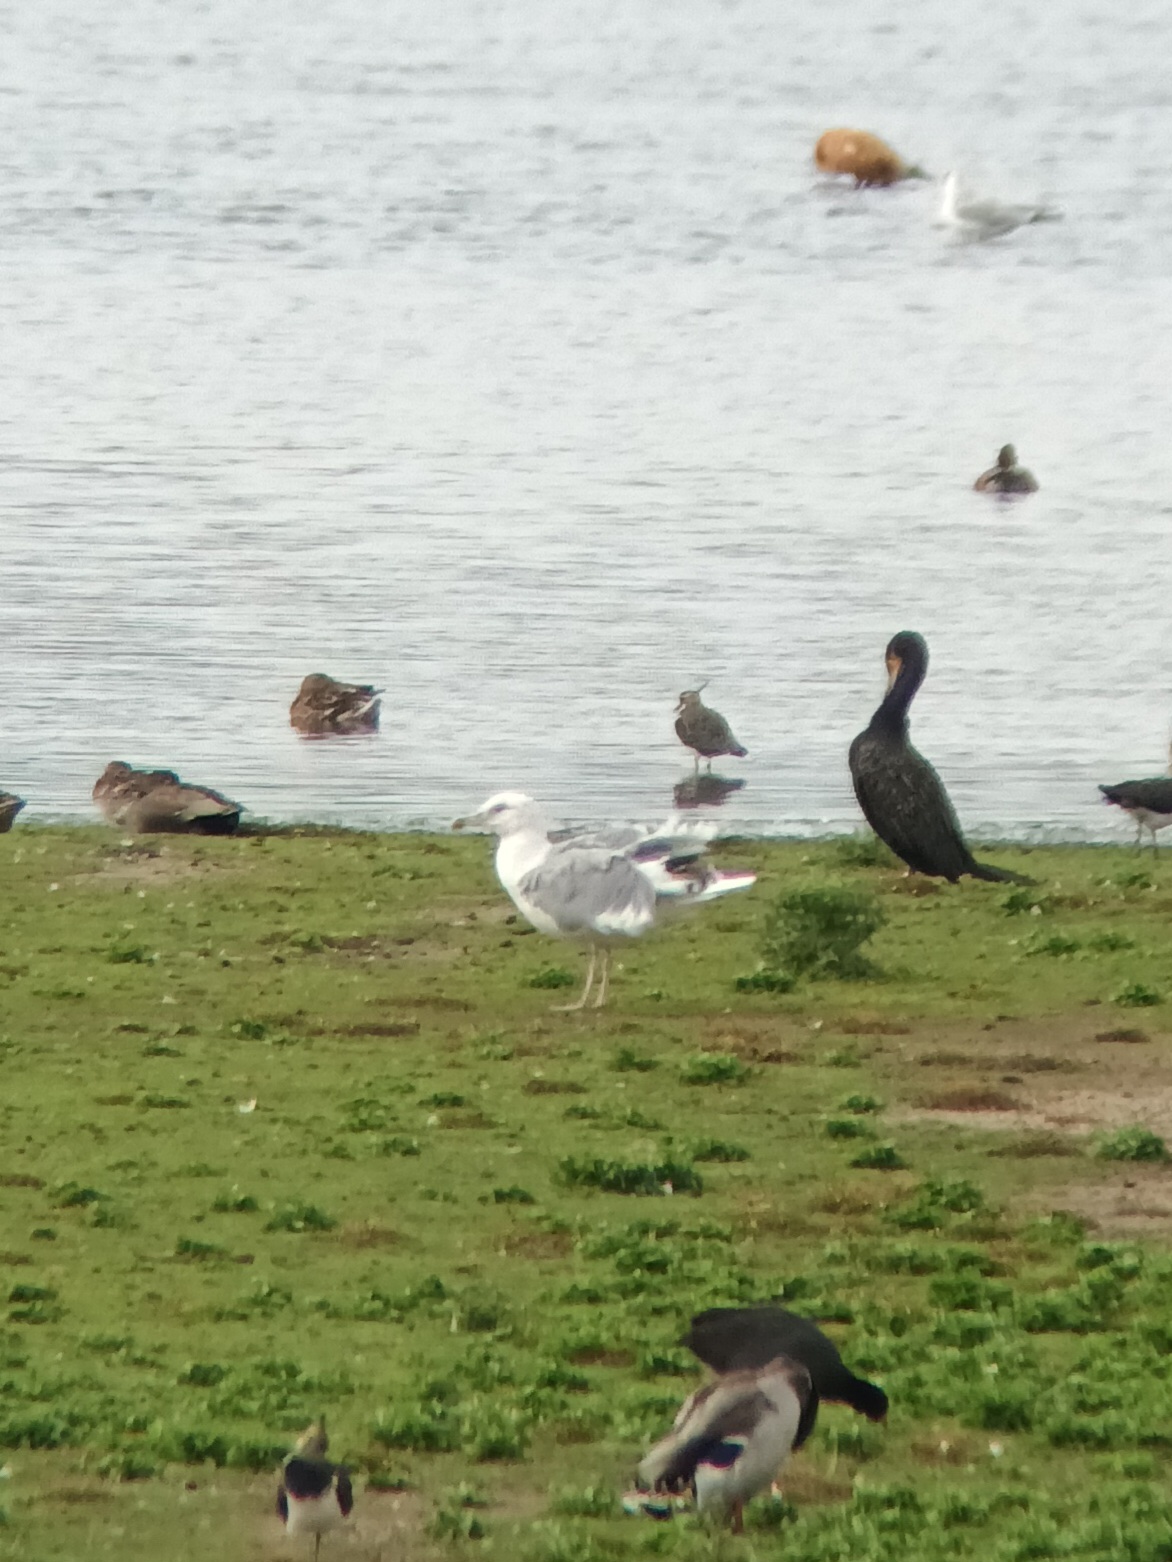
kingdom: Animalia
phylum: Chordata
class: Aves
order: Charadriiformes
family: Laridae
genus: Larus
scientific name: Larus cachinnans
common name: Caspian gull
